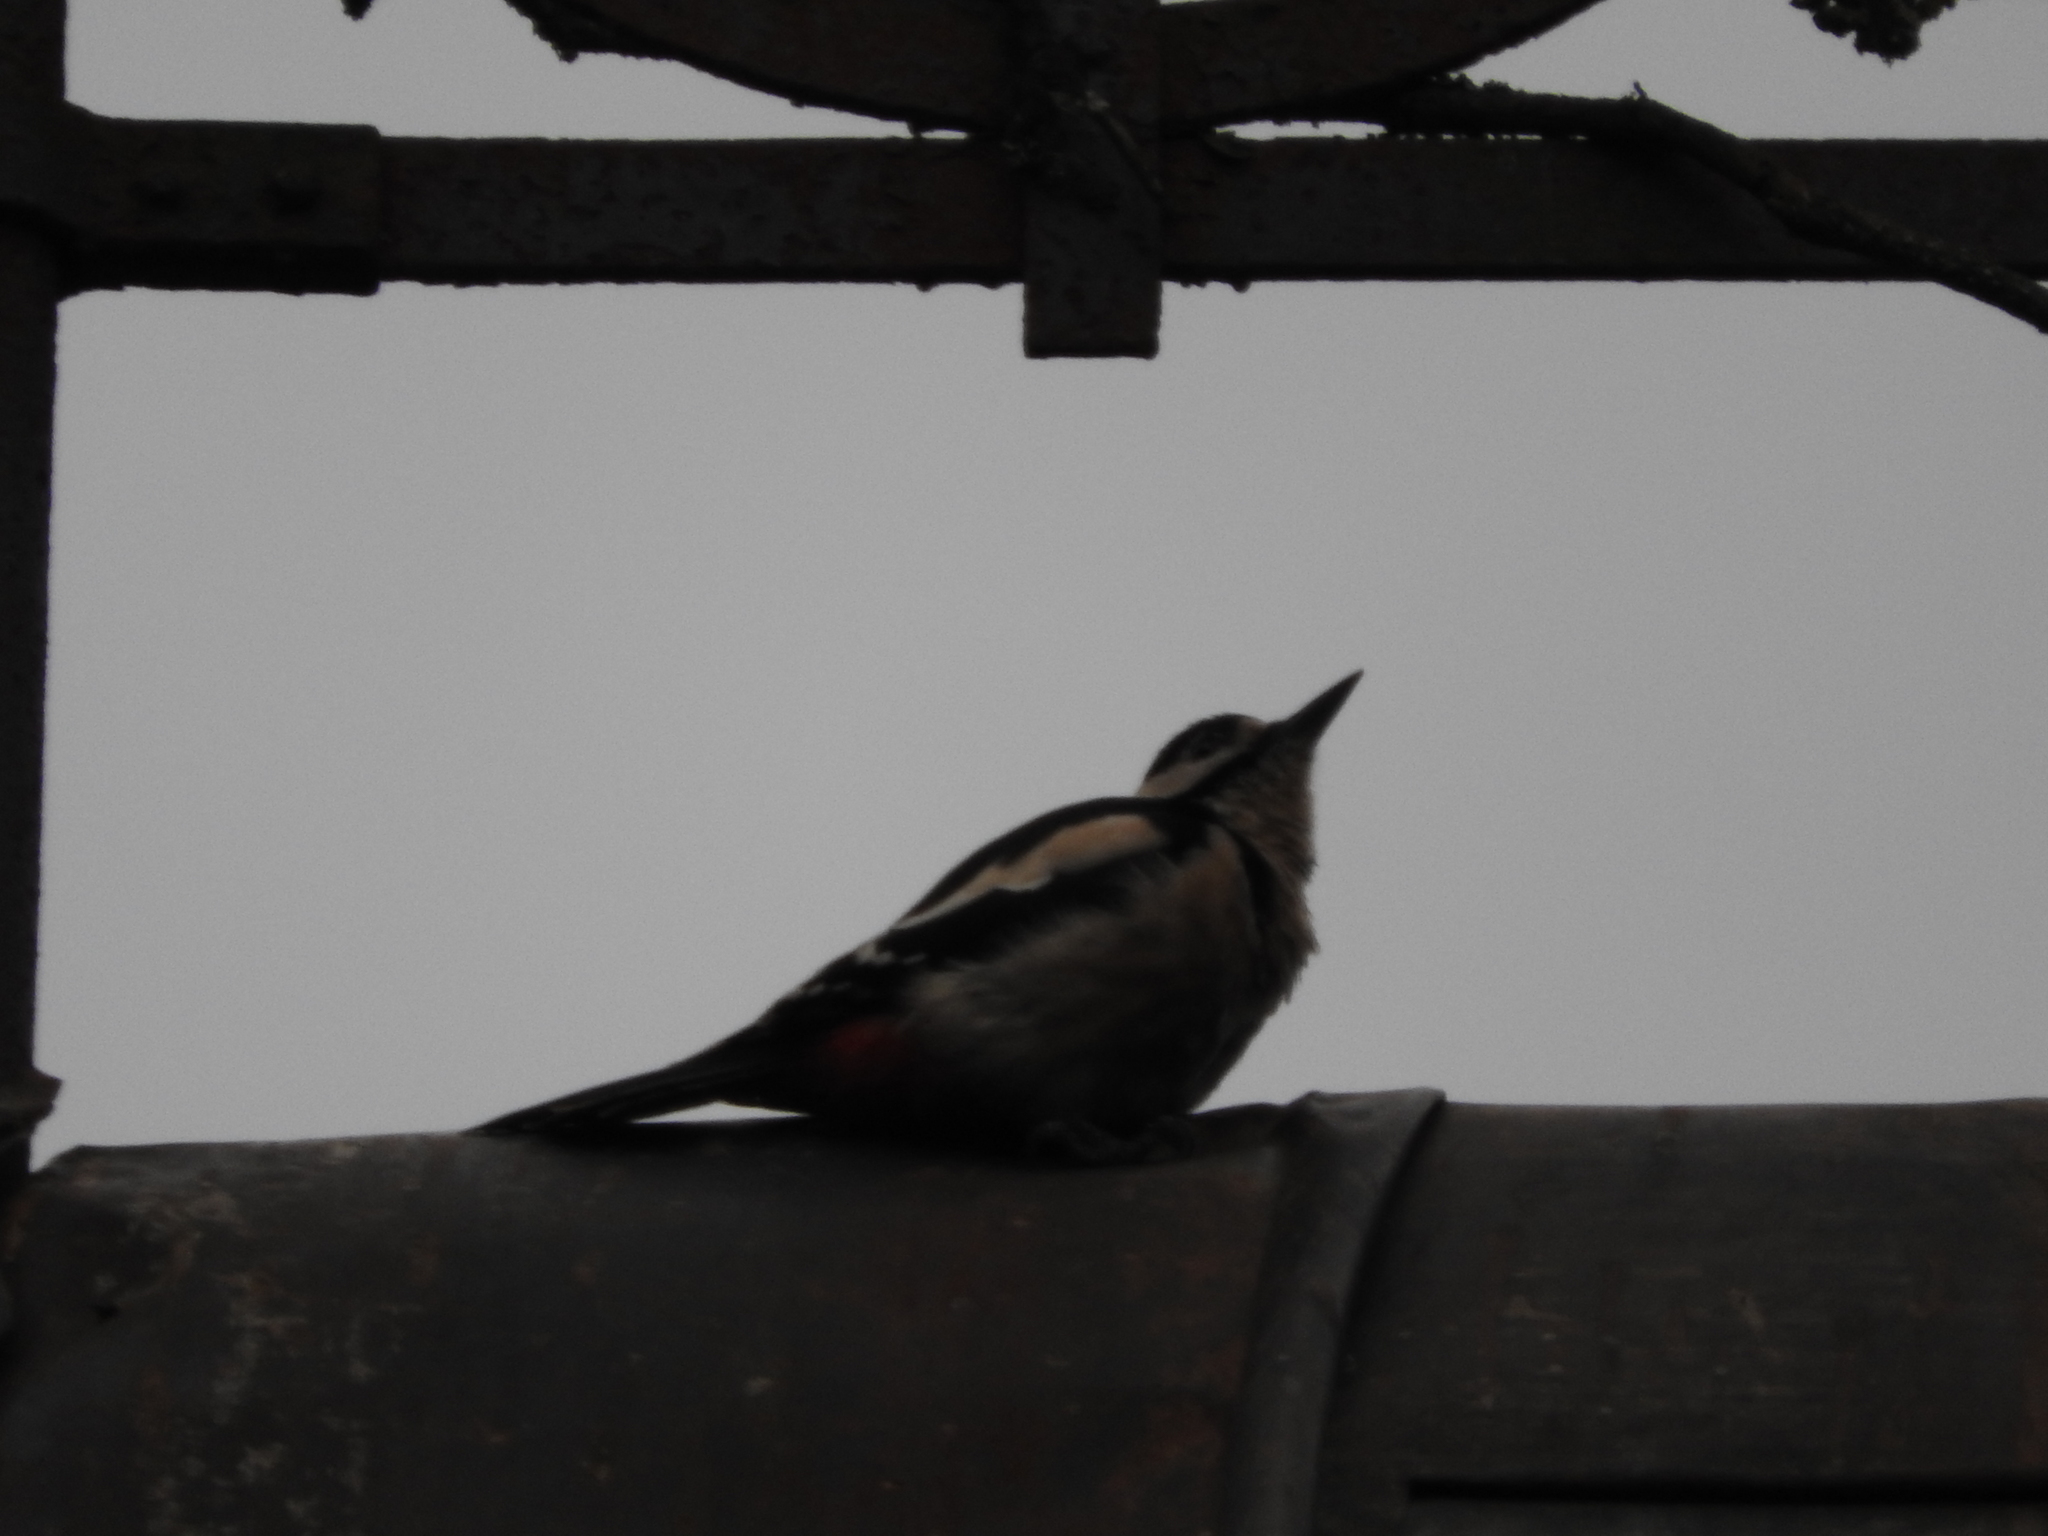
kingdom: Animalia
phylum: Chordata
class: Aves
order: Piciformes
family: Picidae
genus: Dendrocopos
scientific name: Dendrocopos major
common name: Great spotted woodpecker
